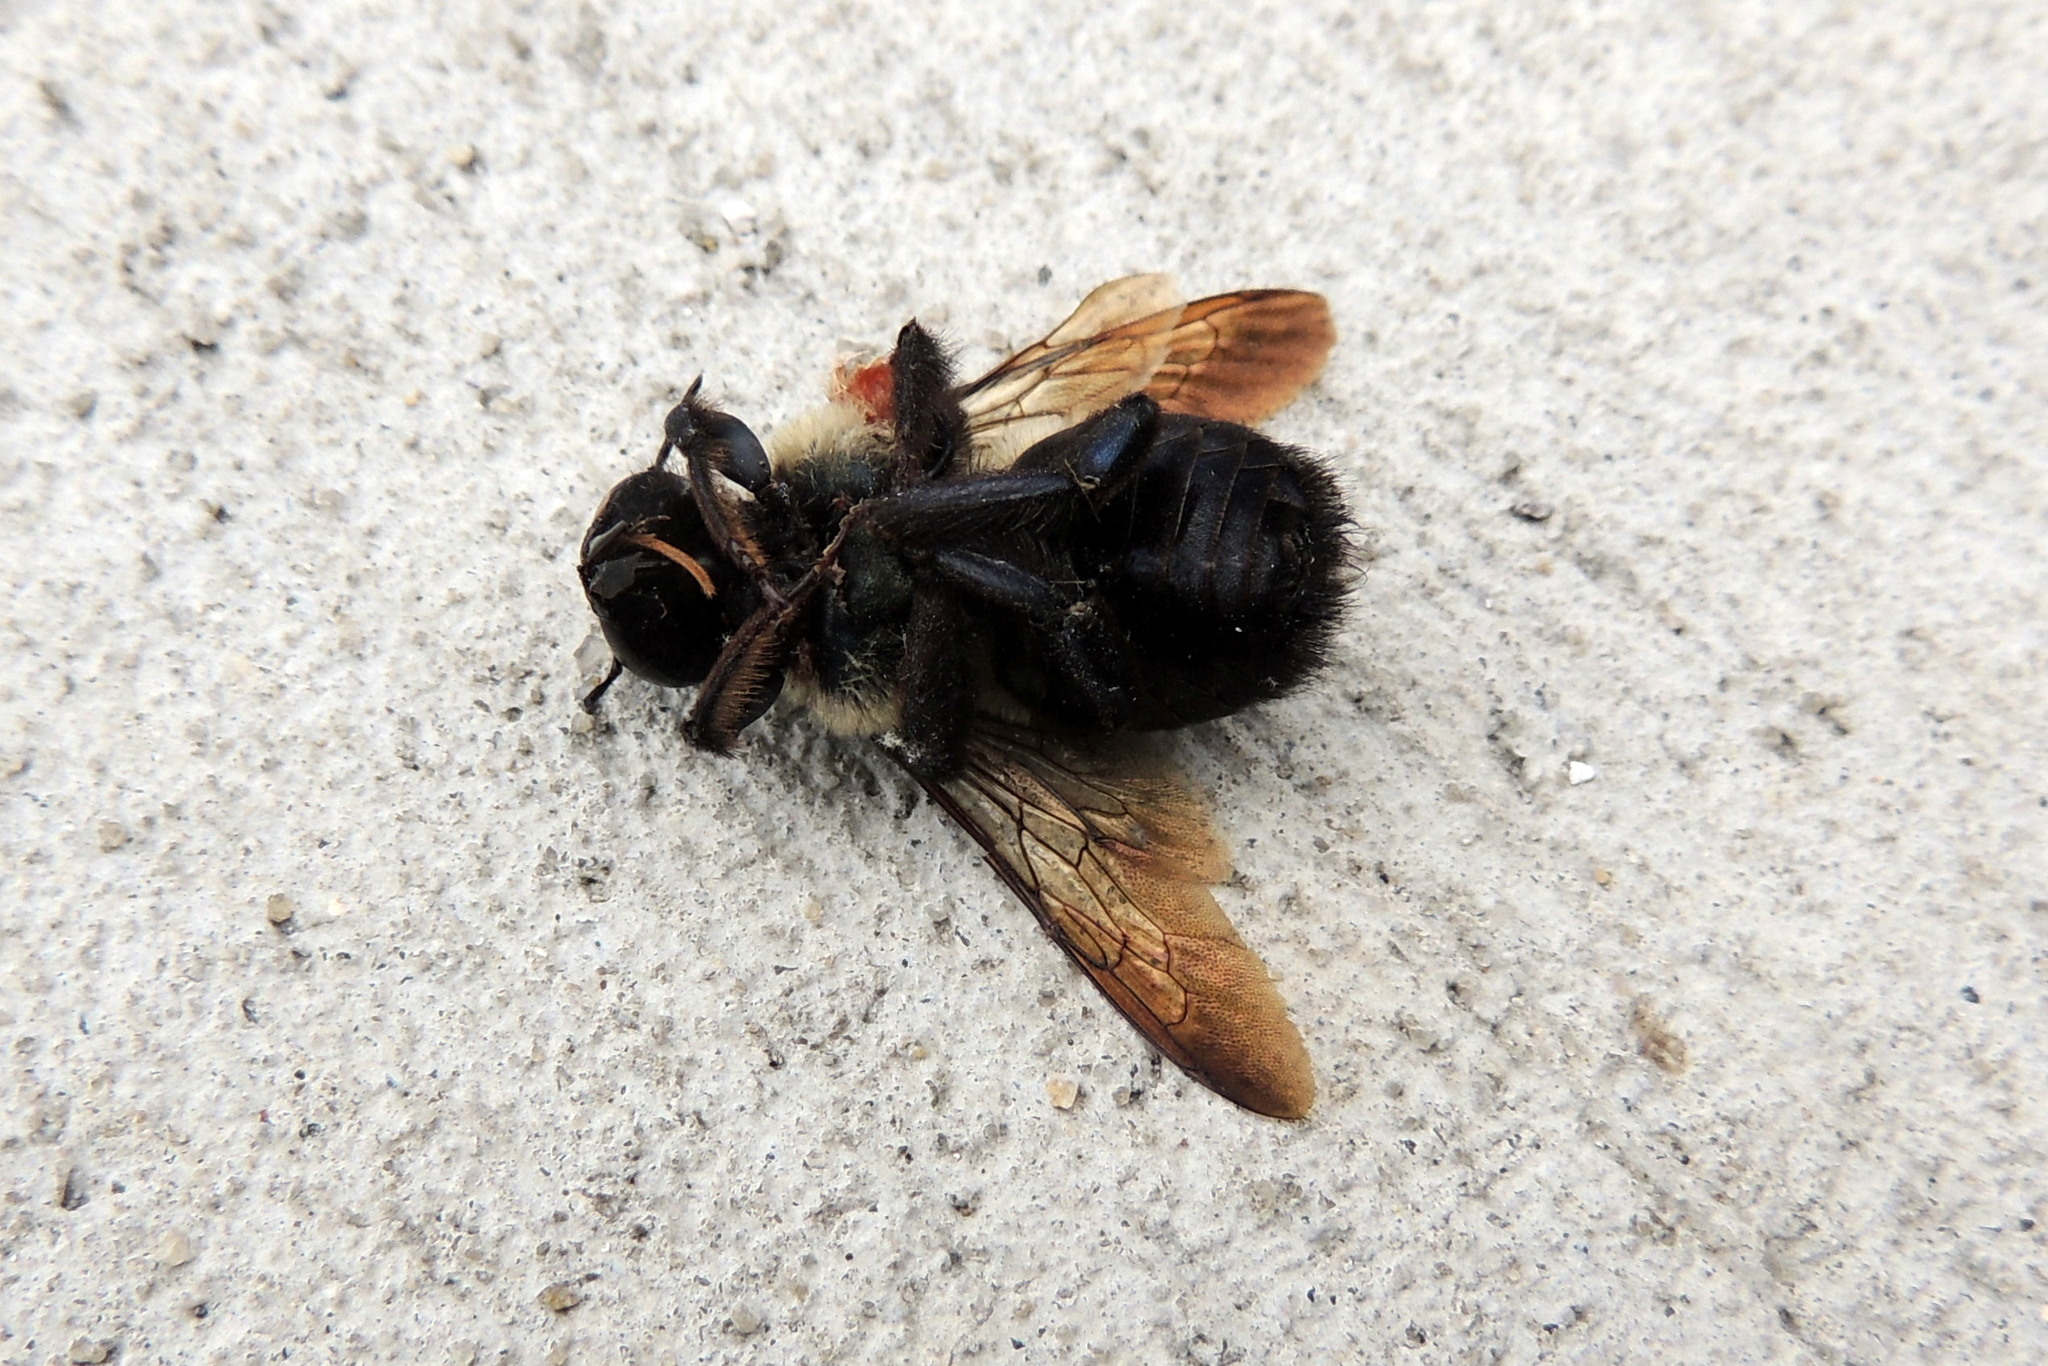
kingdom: Animalia
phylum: Arthropoda
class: Insecta
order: Hymenoptera
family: Apidae
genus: Xylocopa
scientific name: Xylocopa virginica
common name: Carpenter bee
